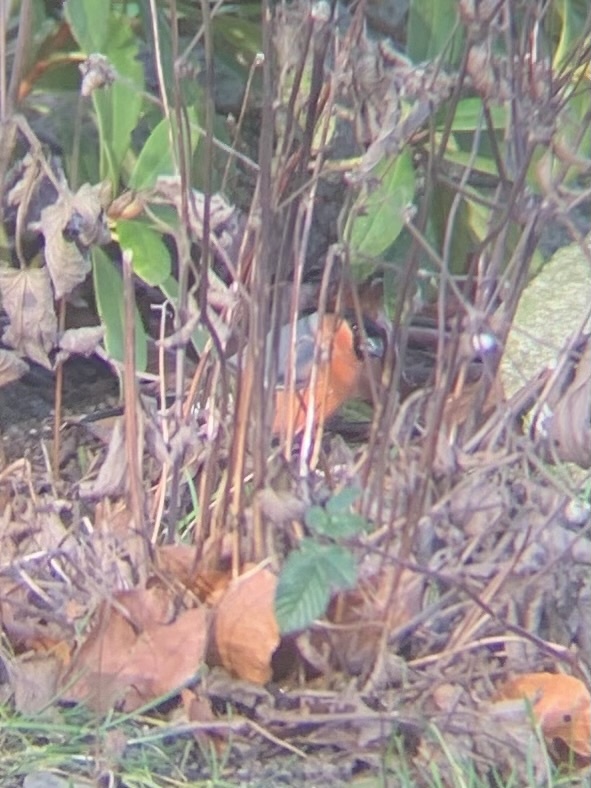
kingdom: Animalia
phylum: Chordata
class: Aves
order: Passeriformes
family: Fringillidae
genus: Pyrrhula
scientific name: Pyrrhula pyrrhula
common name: Eurasian bullfinch
